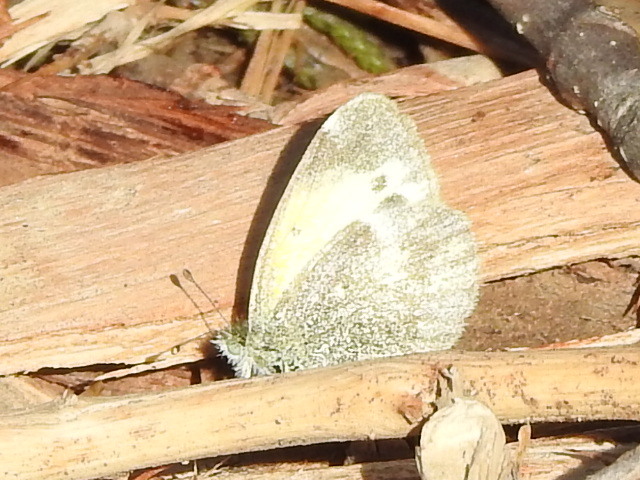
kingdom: Animalia
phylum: Arthropoda
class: Insecta
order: Lepidoptera
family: Pieridae
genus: Nathalis
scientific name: Nathalis iole
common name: Dainty sulphur
